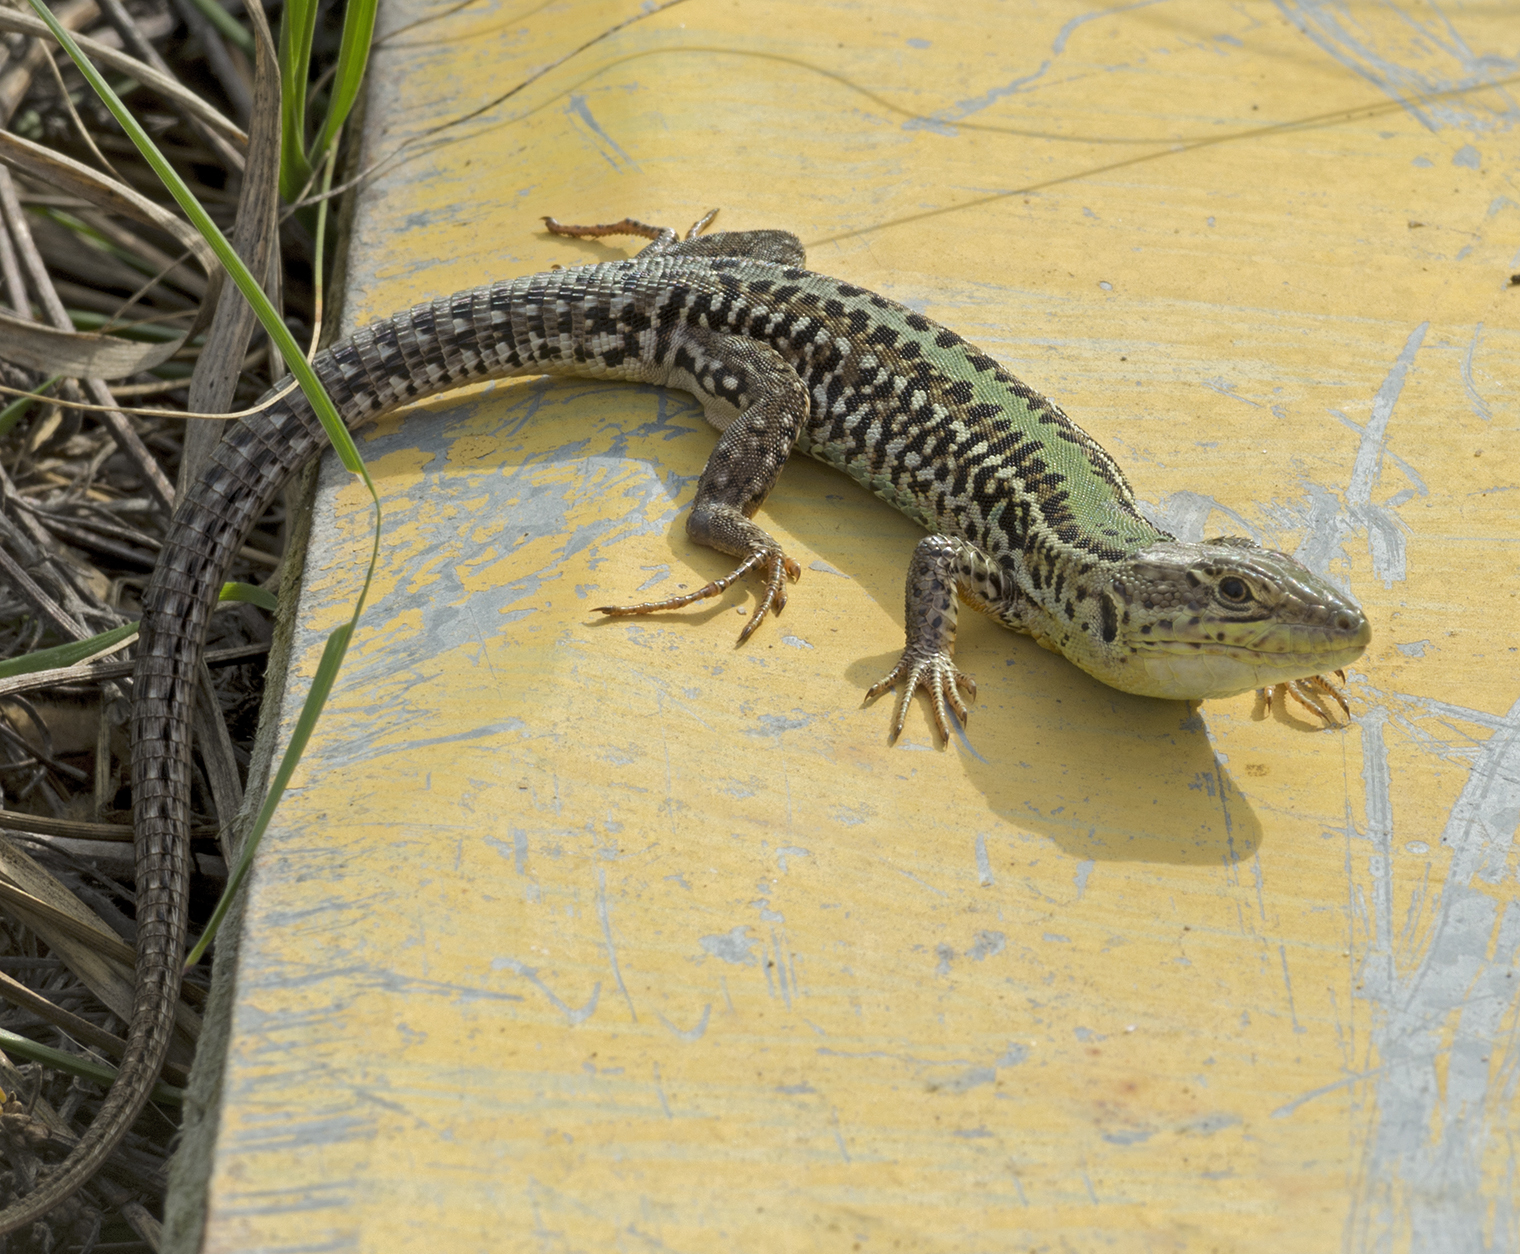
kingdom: Animalia
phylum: Chordata
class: Squamata
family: Lacertidae
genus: Podarcis
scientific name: Podarcis tauricus
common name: Balkan wall lizard
